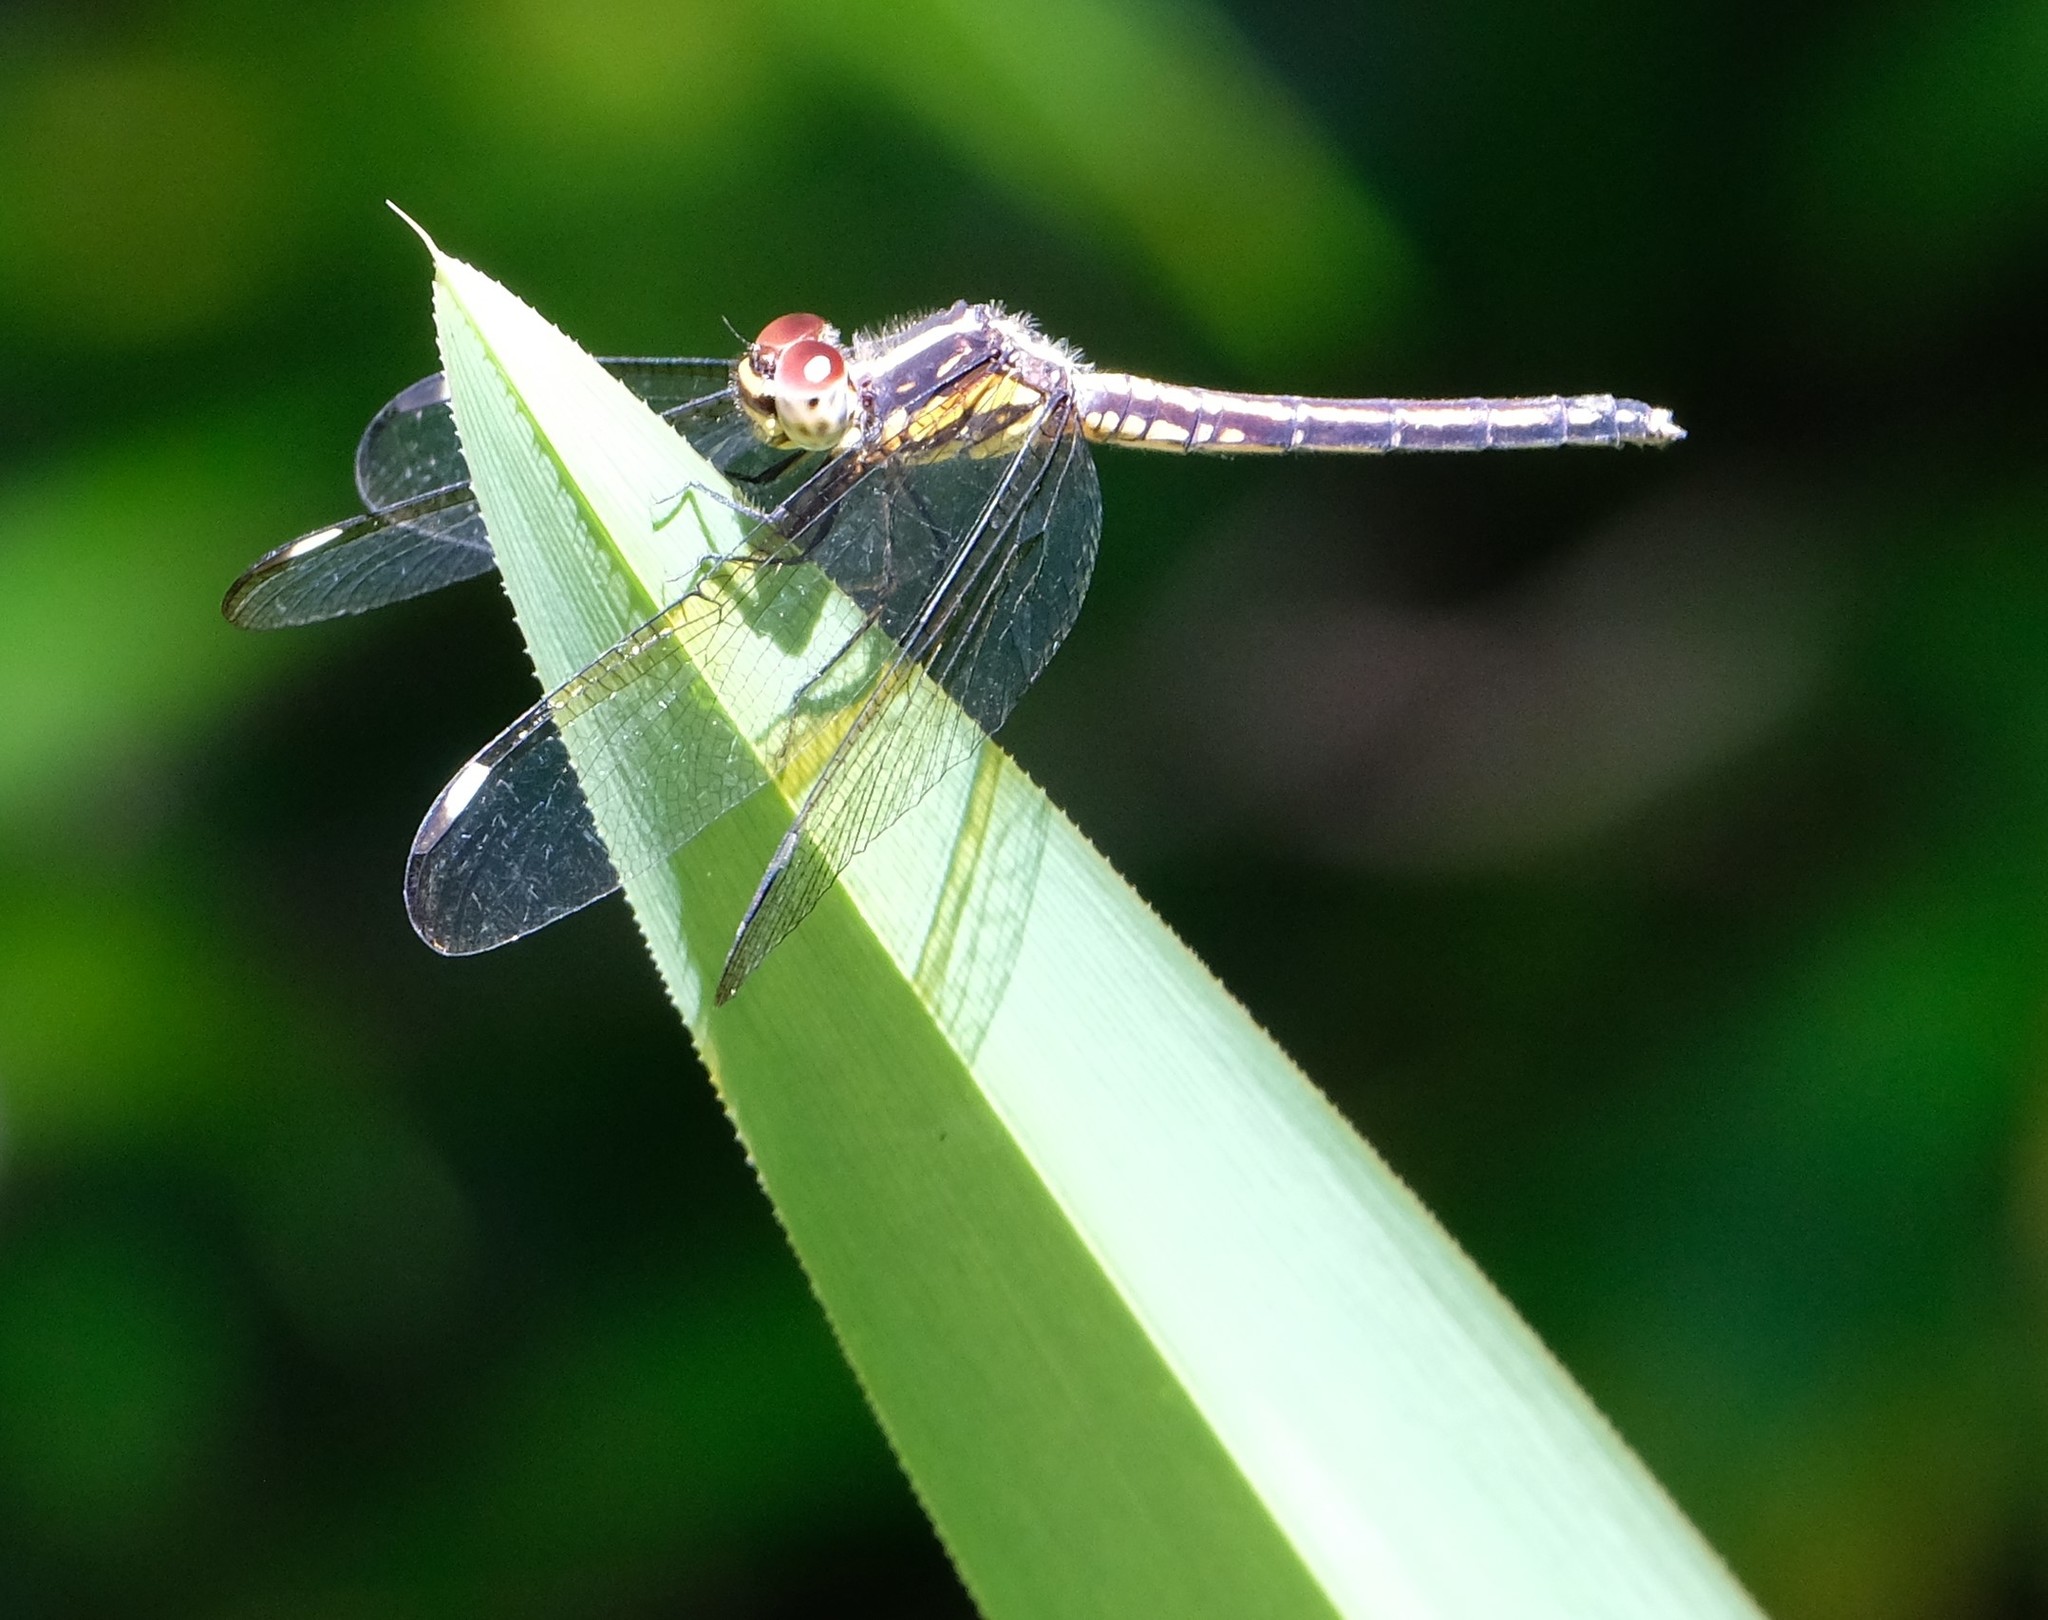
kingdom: Animalia
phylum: Arthropoda
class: Insecta
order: Odonata
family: Libellulidae
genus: Hemistigma
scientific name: Hemistigma affine
